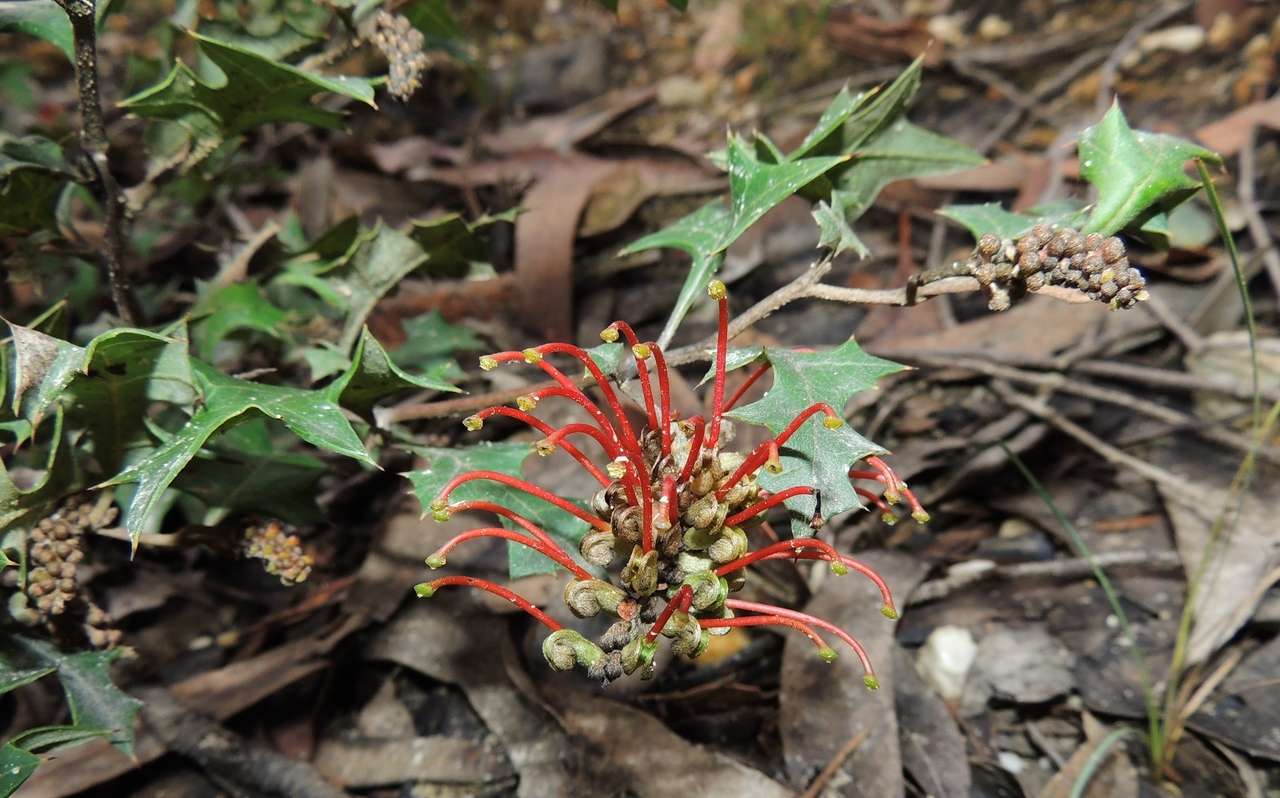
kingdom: Plantae
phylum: Tracheophyta
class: Magnoliopsida
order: Proteales
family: Proteaceae
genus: Grevillea
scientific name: Grevillea steiglitziana
